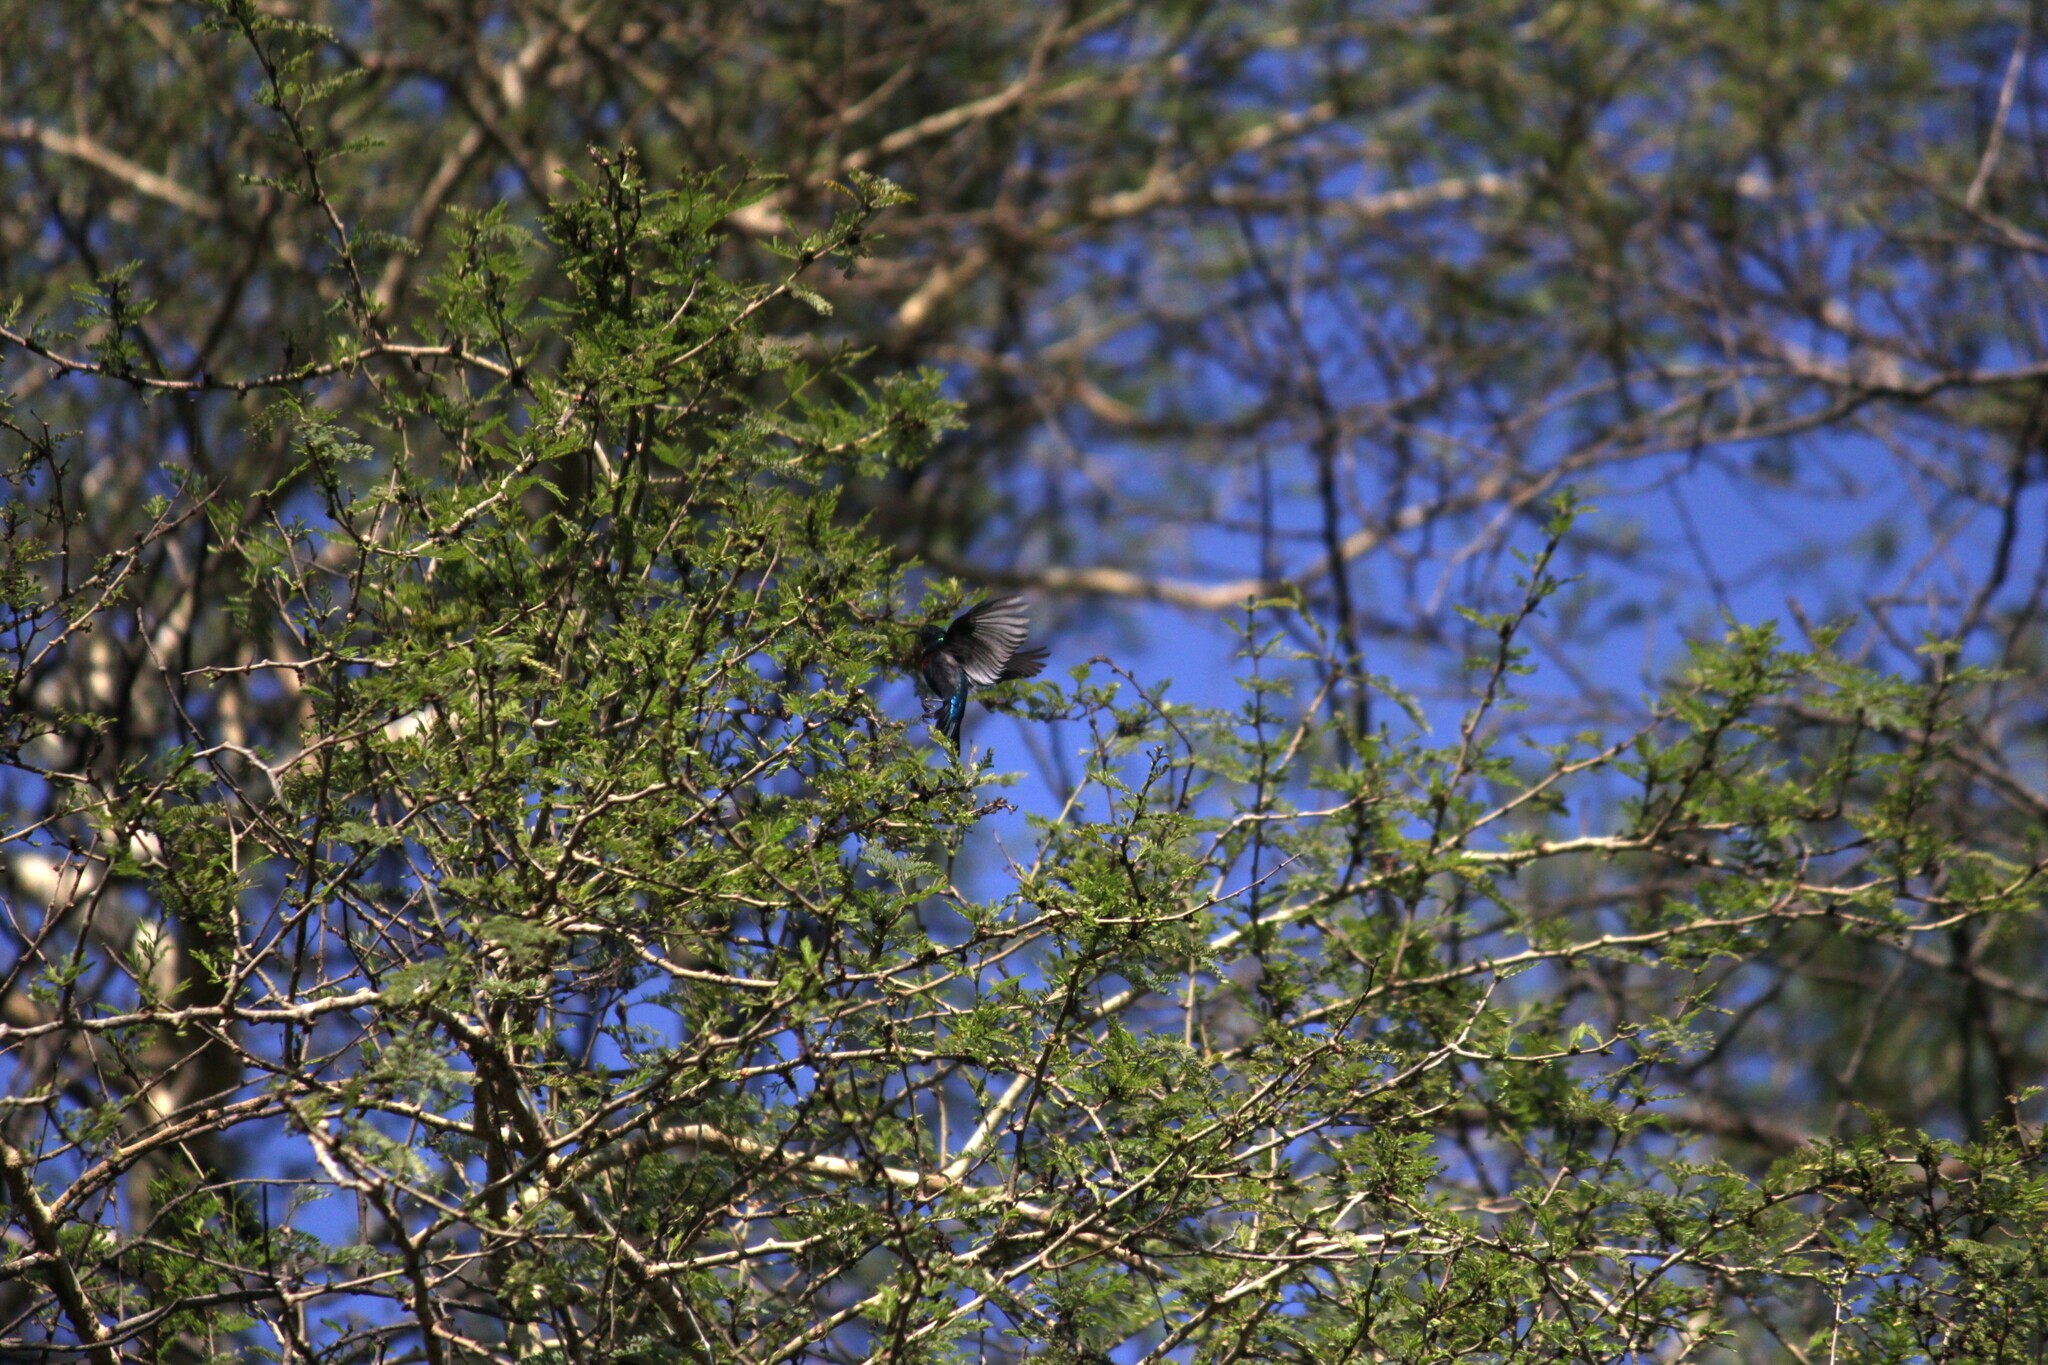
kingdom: Animalia
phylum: Chordata
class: Aves
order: Passeriformes
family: Nectariniidae
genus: Cinnyris
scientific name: Cinnyris bifasciatus
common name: Purple-banded sunbird
